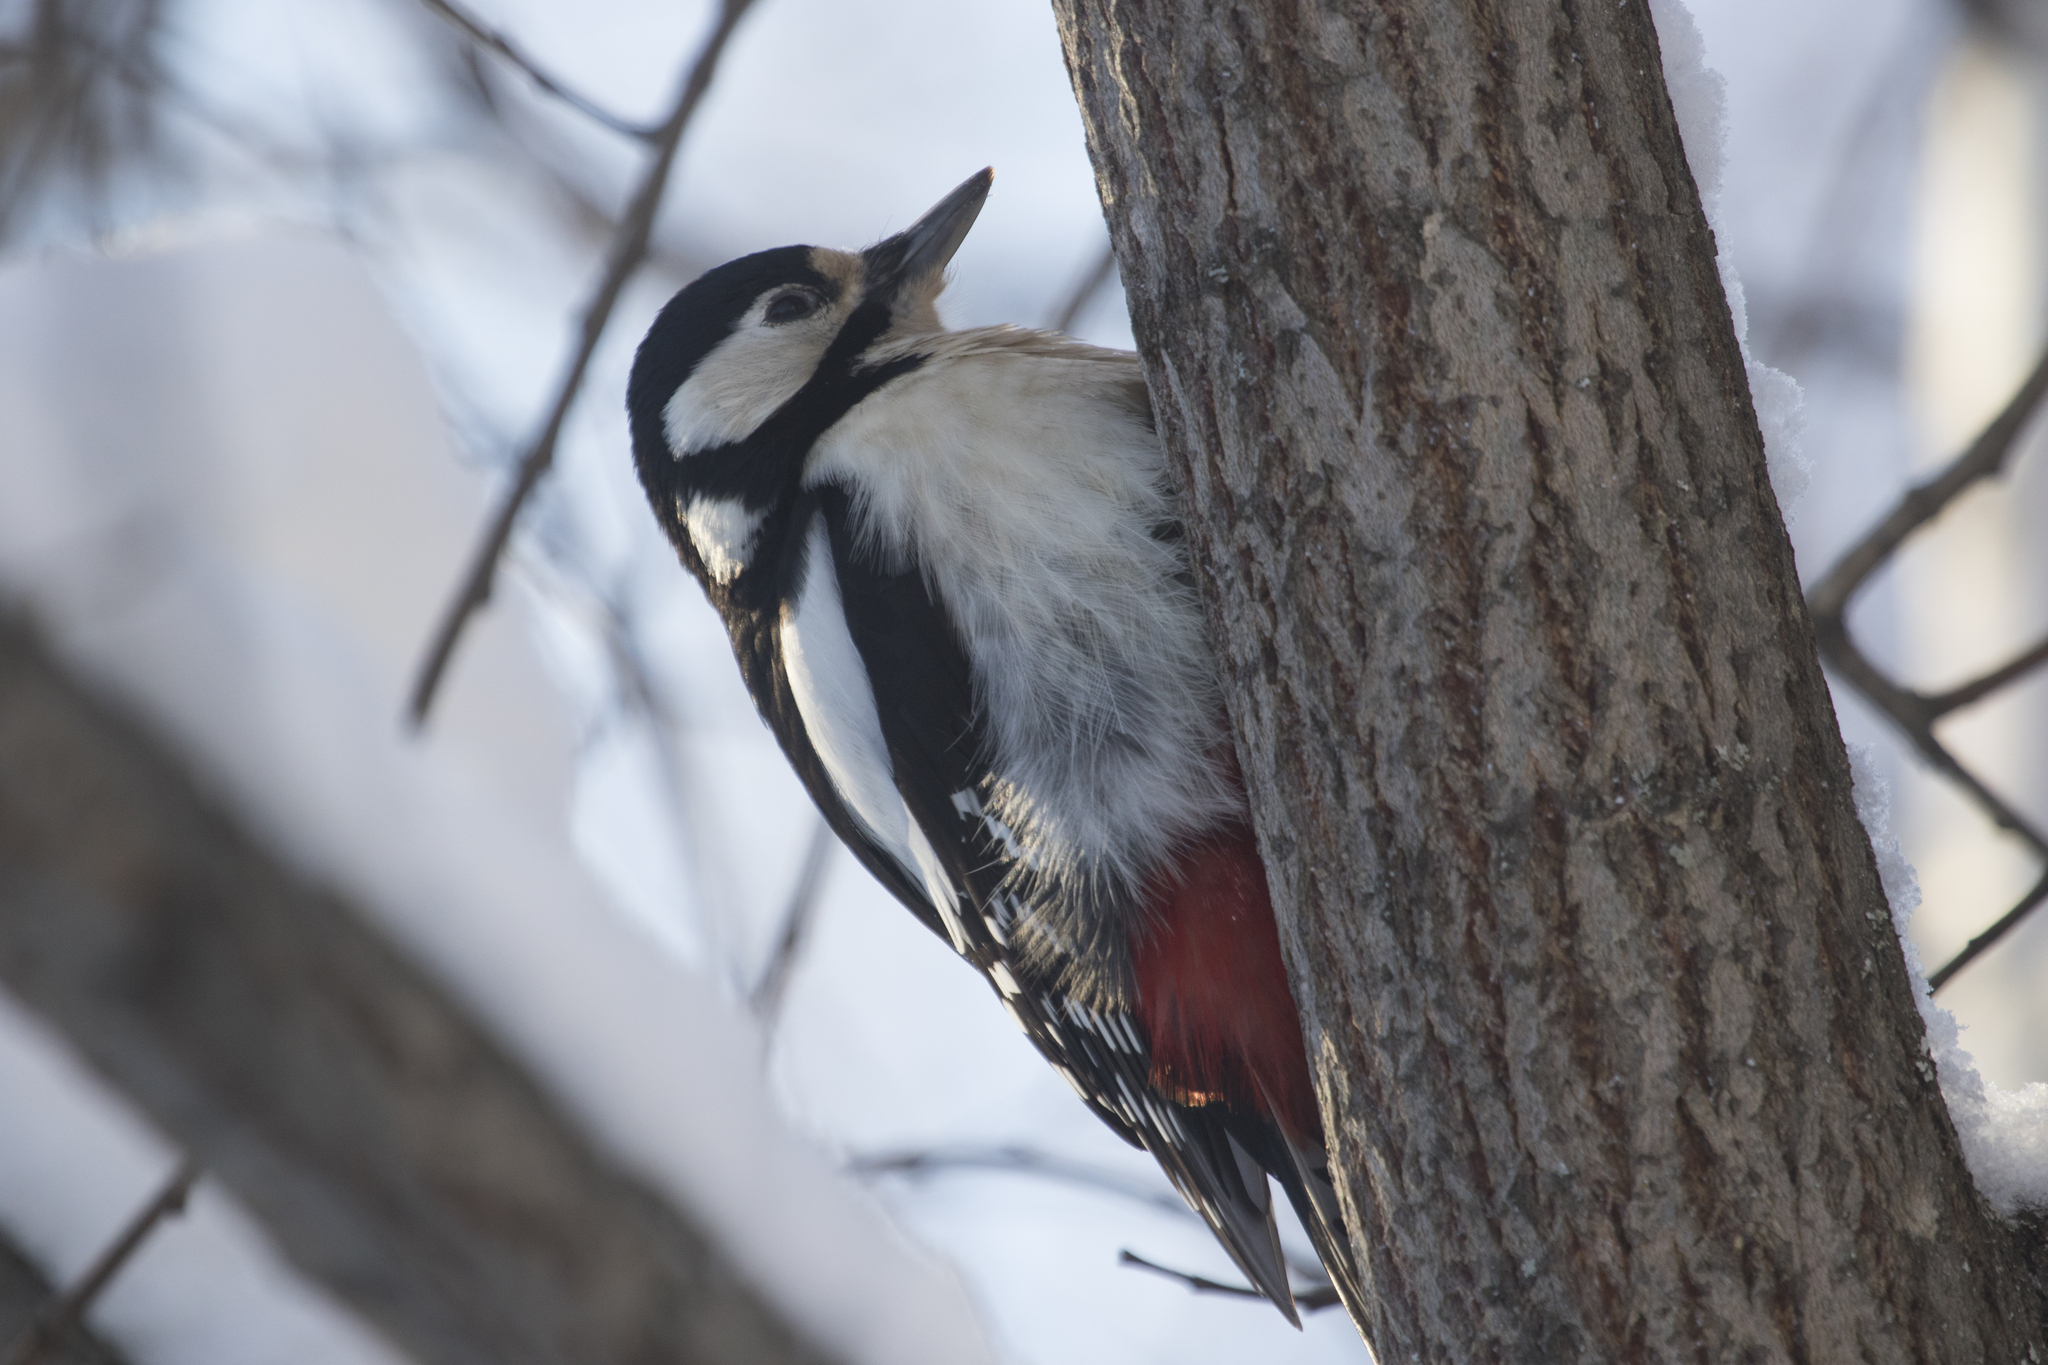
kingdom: Animalia
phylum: Chordata
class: Aves
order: Piciformes
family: Picidae
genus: Dendrocopos
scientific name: Dendrocopos major
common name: Great spotted woodpecker
